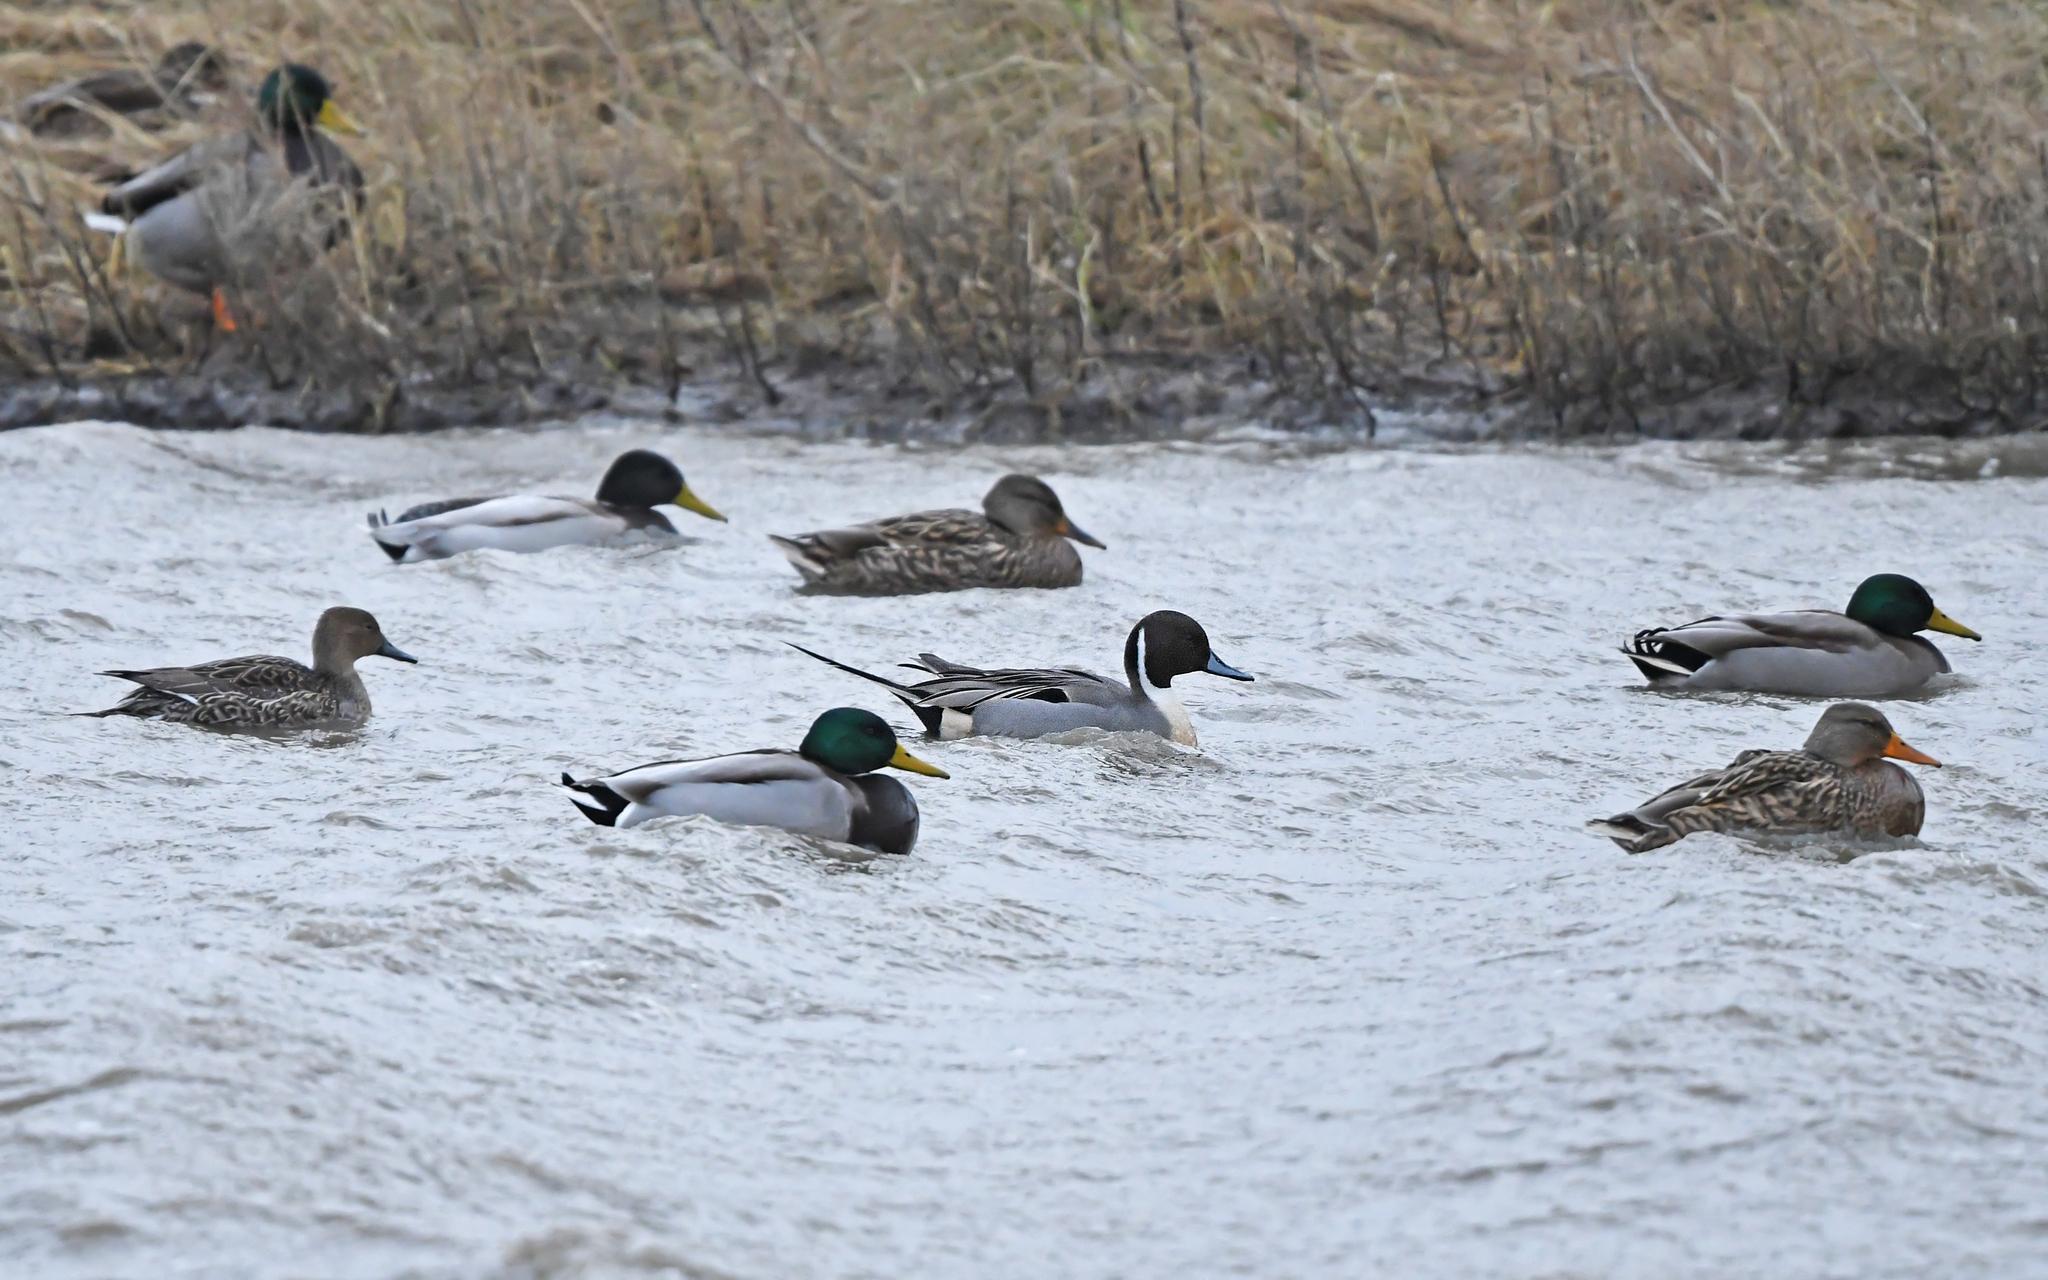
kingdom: Animalia
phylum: Chordata
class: Aves
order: Anseriformes
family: Anatidae
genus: Anas
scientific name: Anas acuta
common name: Northern pintail
